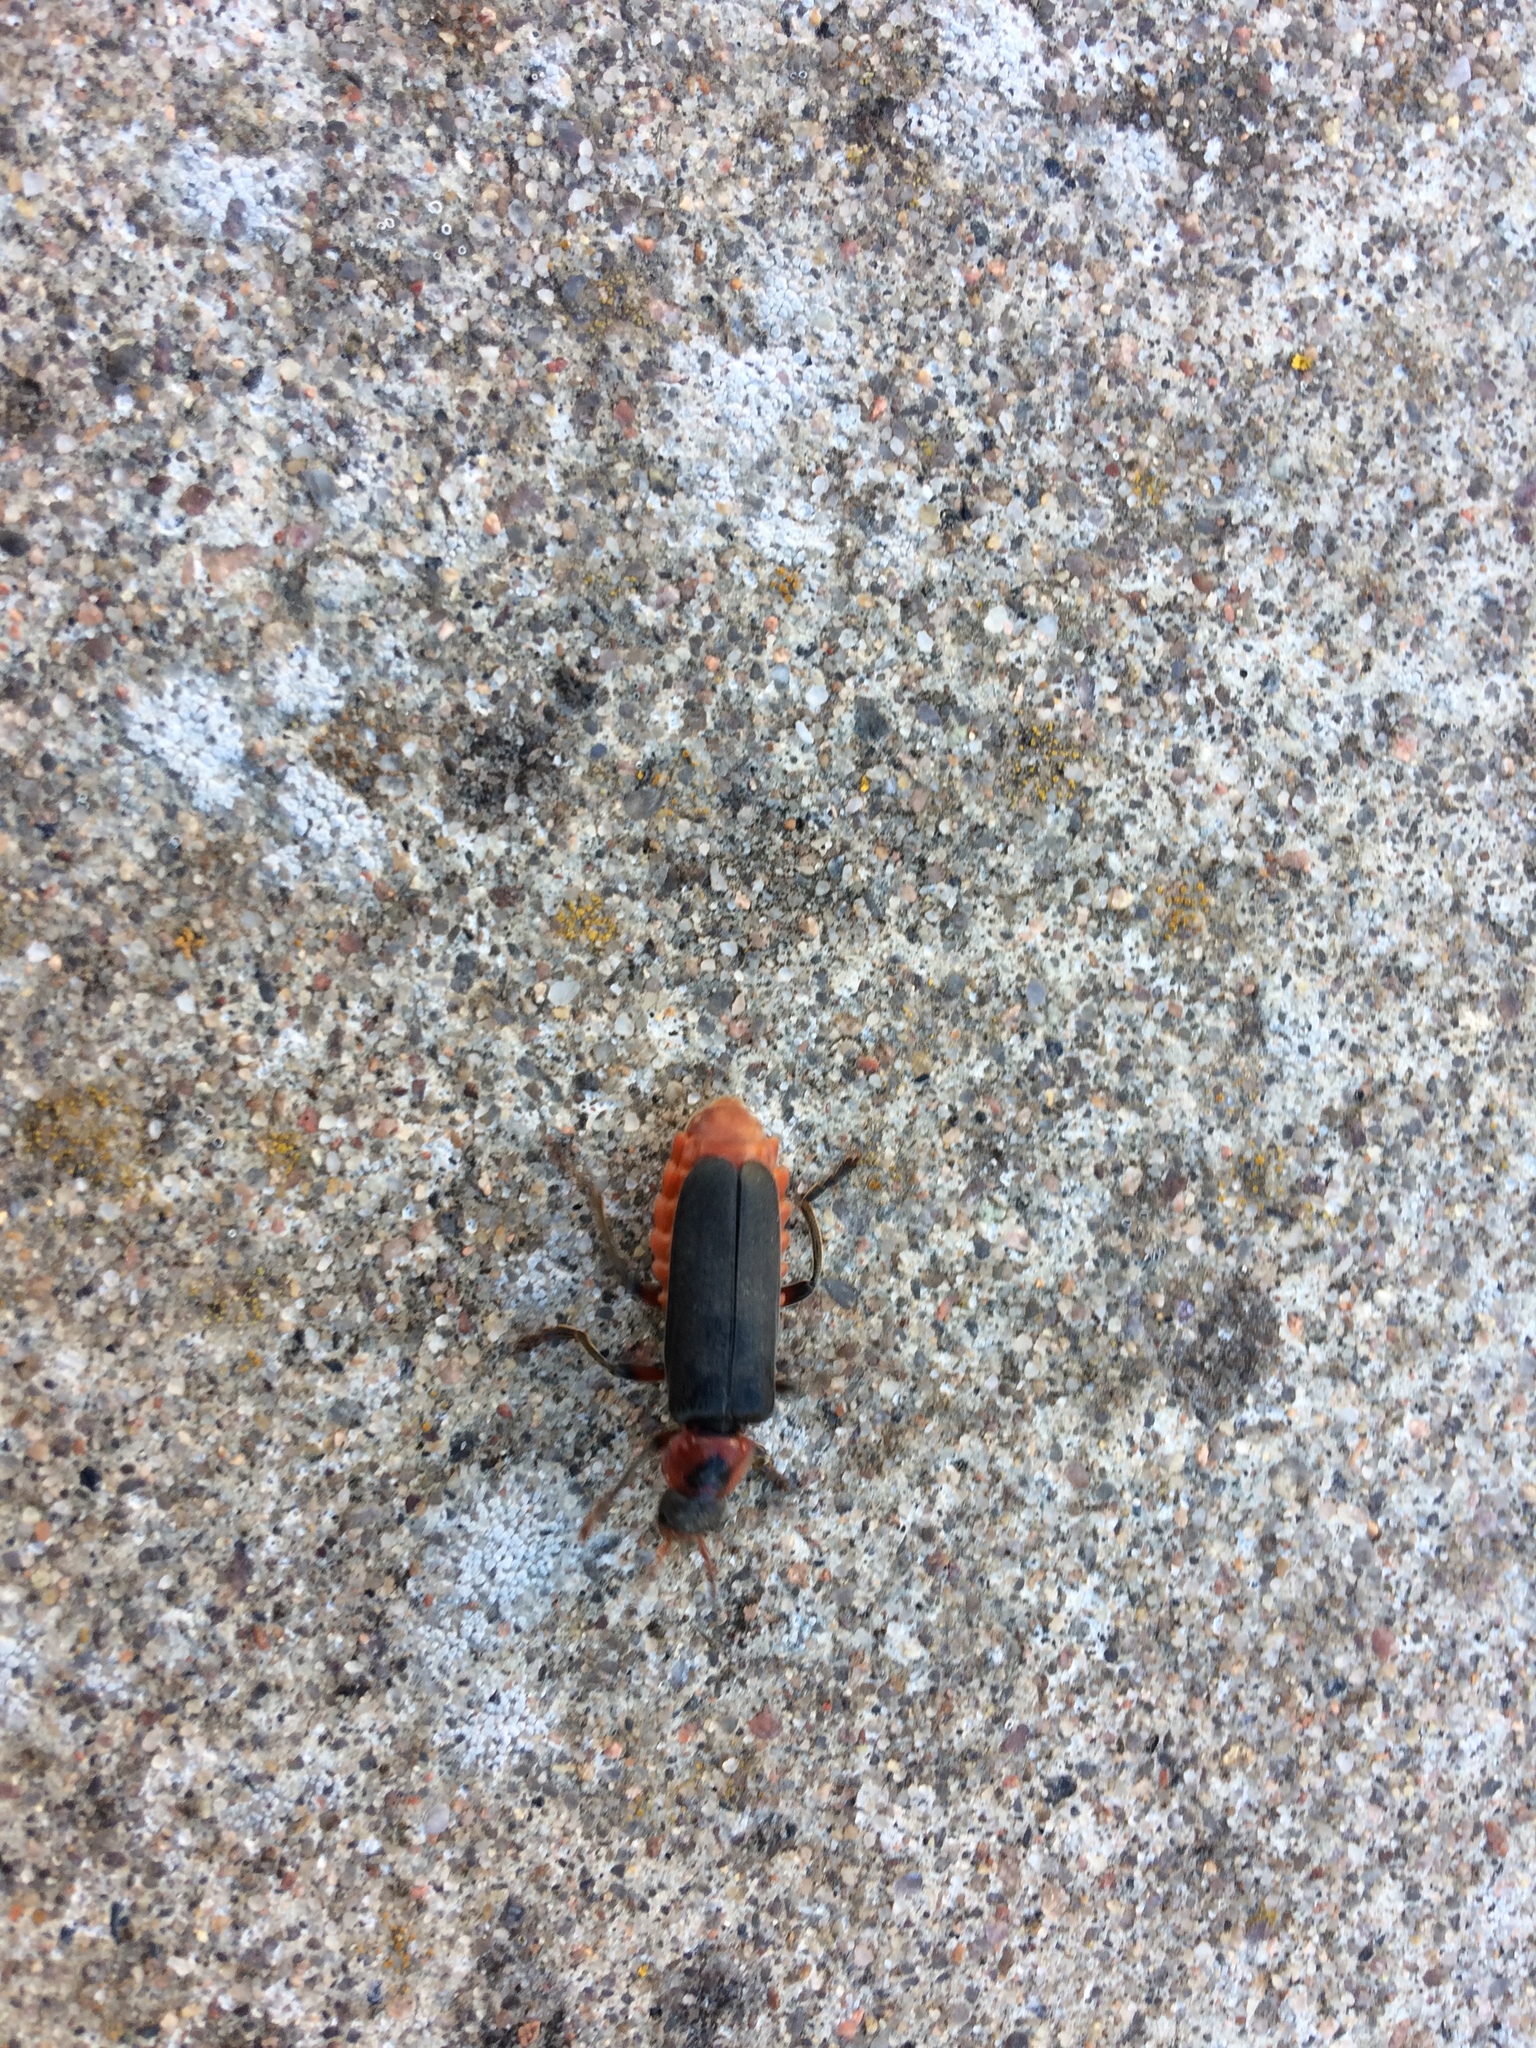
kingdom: Animalia
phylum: Arthropoda
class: Insecta
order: Coleoptera
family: Cantharidae
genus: Cantharis
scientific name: Cantharis rustica
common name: Soldier beetle
